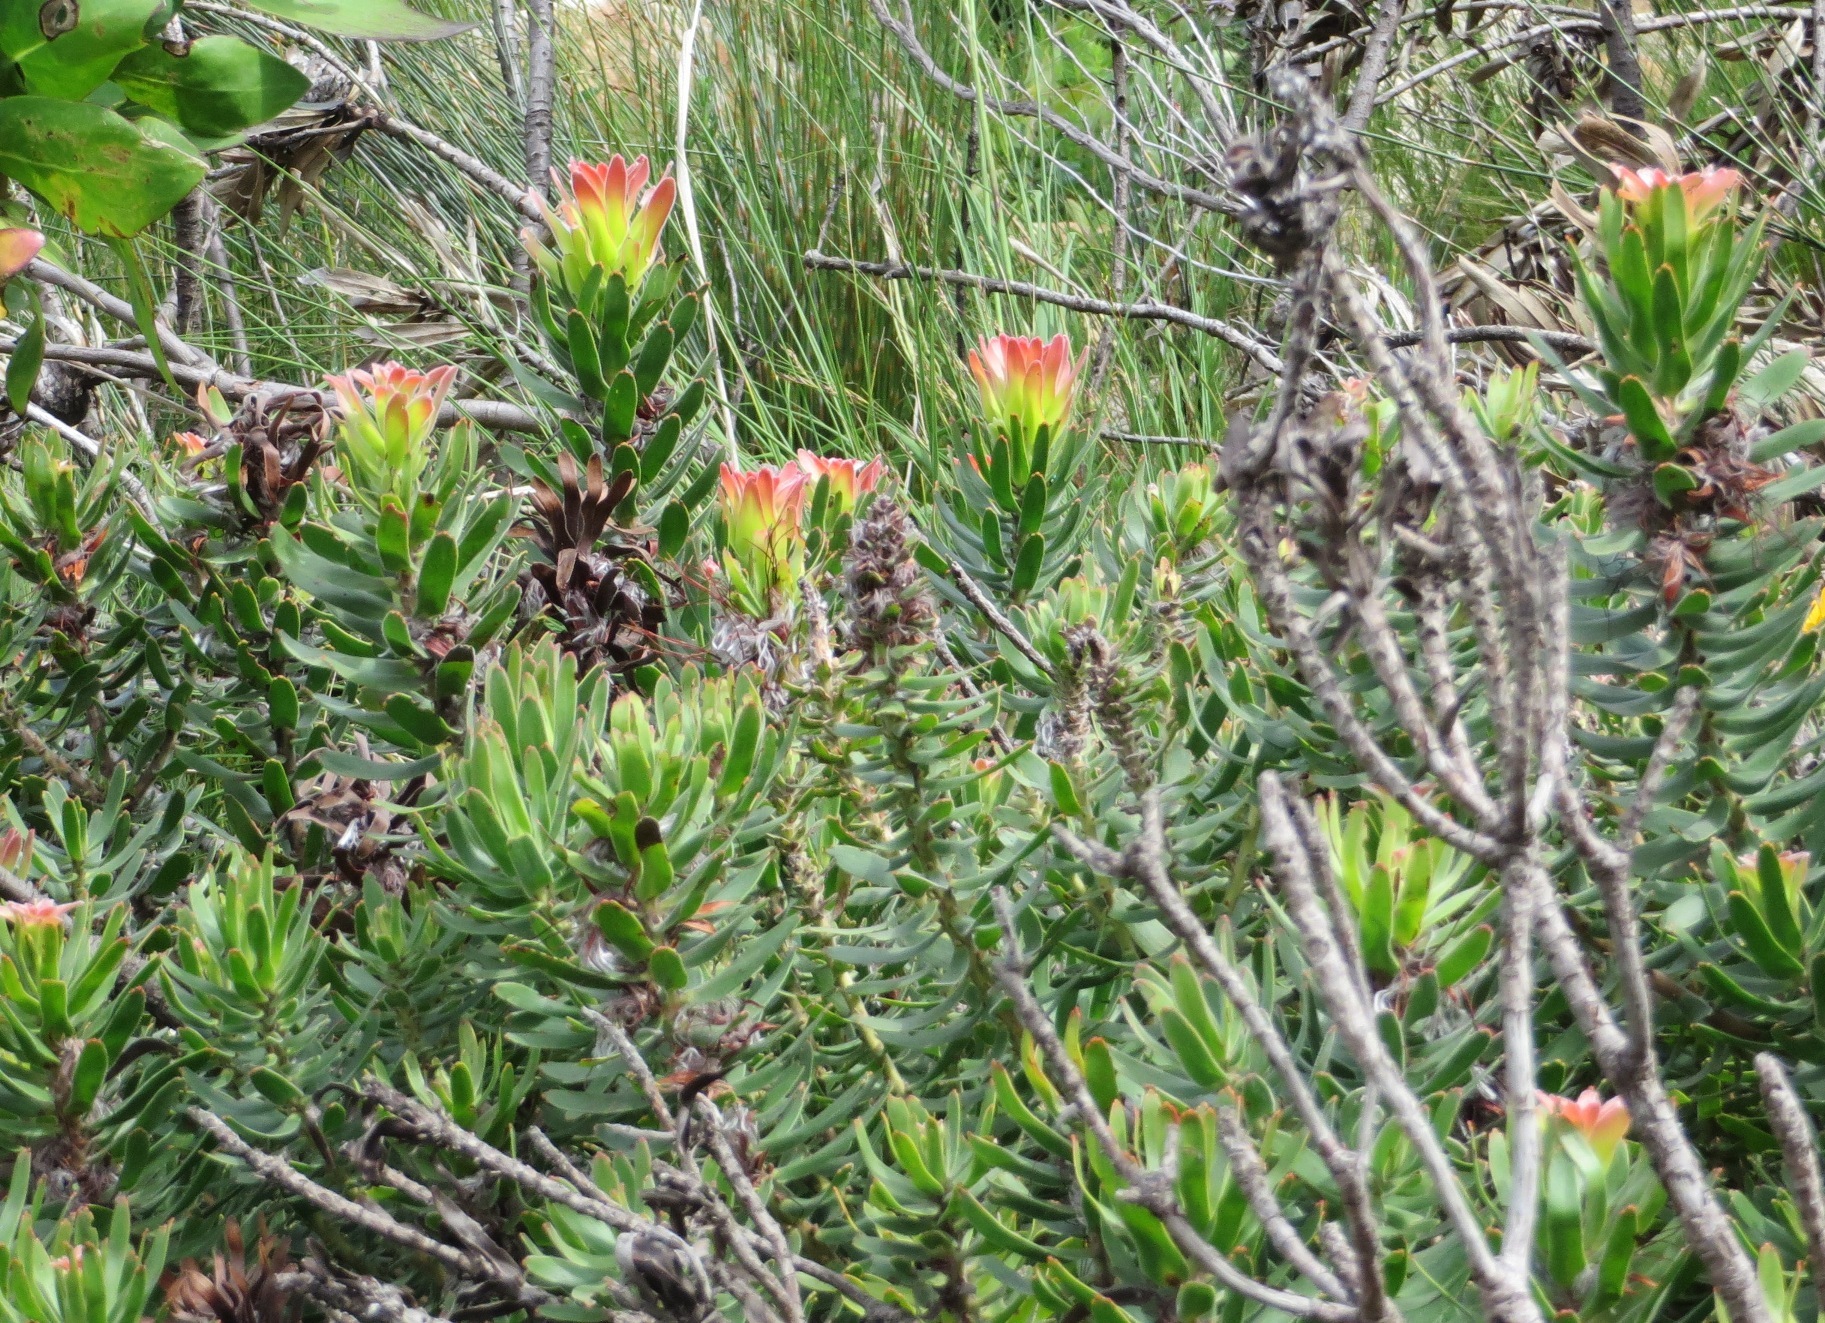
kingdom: Plantae
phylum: Tracheophyta
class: Magnoliopsida
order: Proteales
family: Proteaceae
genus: Mimetes
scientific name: Mimetes cucullatus
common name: Common pagoda
